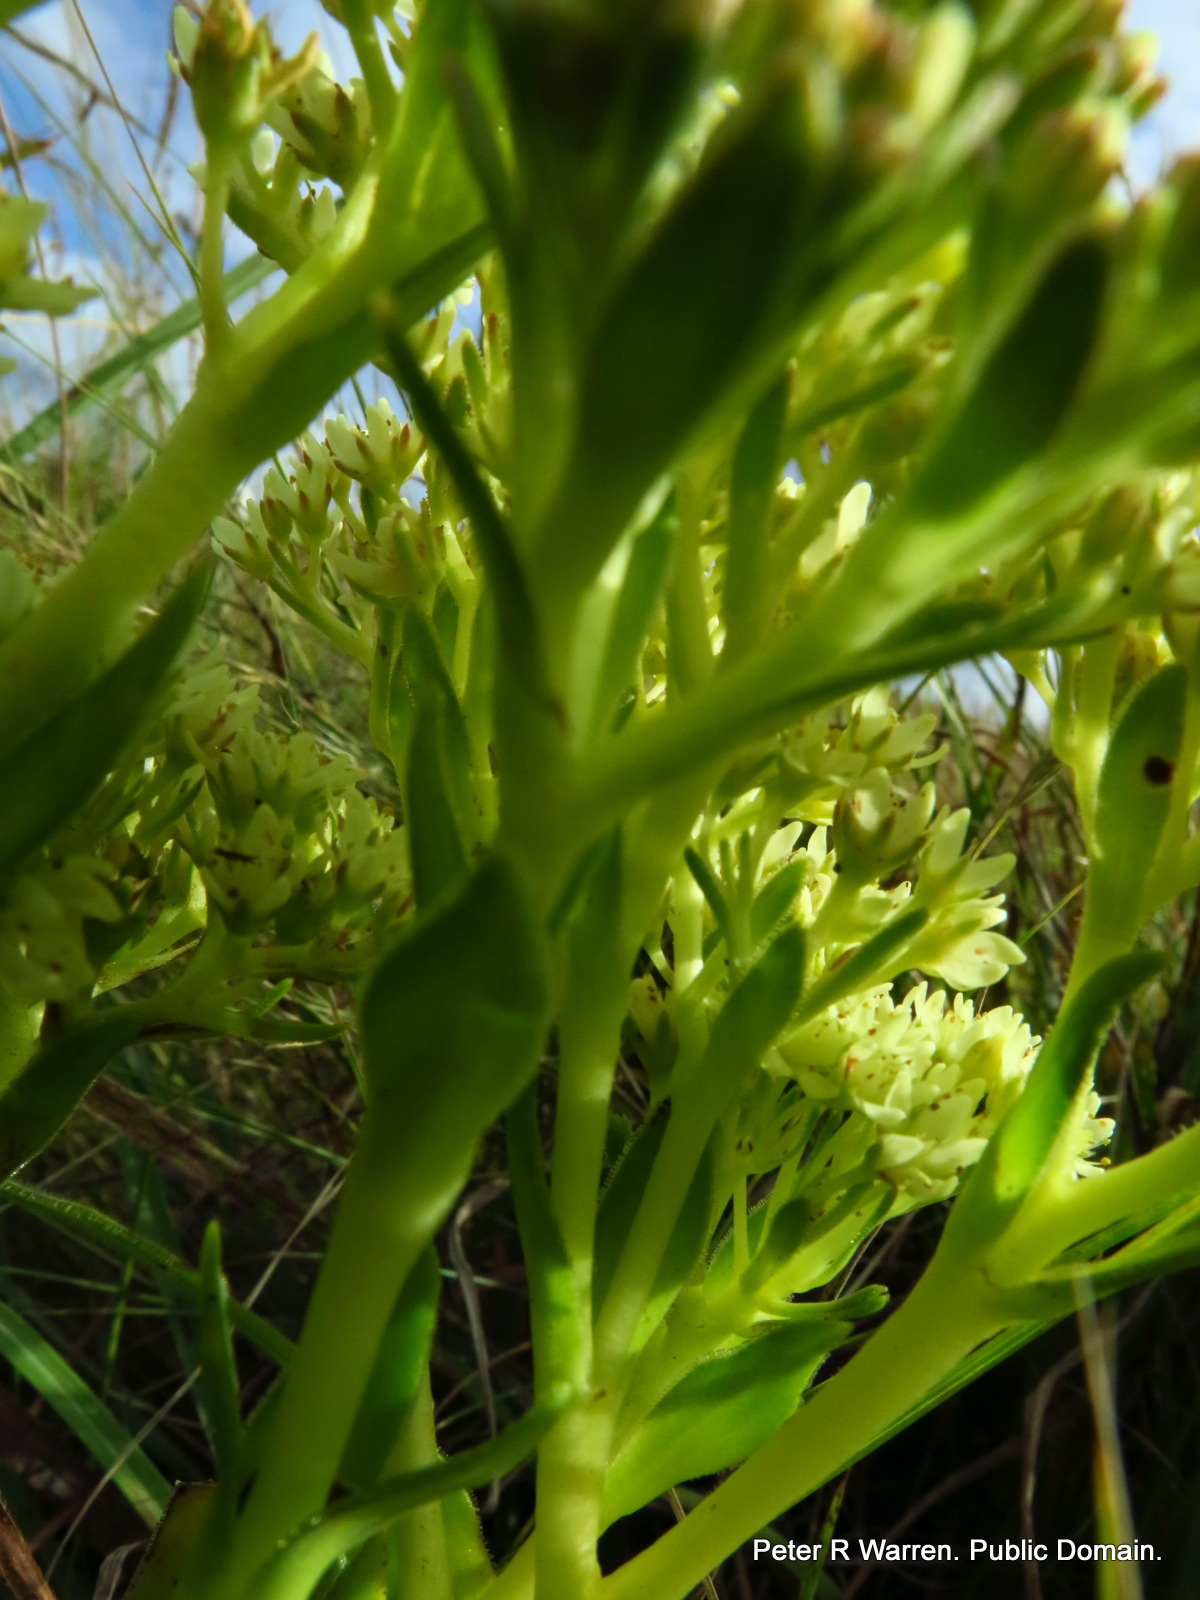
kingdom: Plantae
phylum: Tracheophyta
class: Magnoliopsida
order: Saxifragales
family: Crassulaceae
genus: Crassula
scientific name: Crassula vaginata
